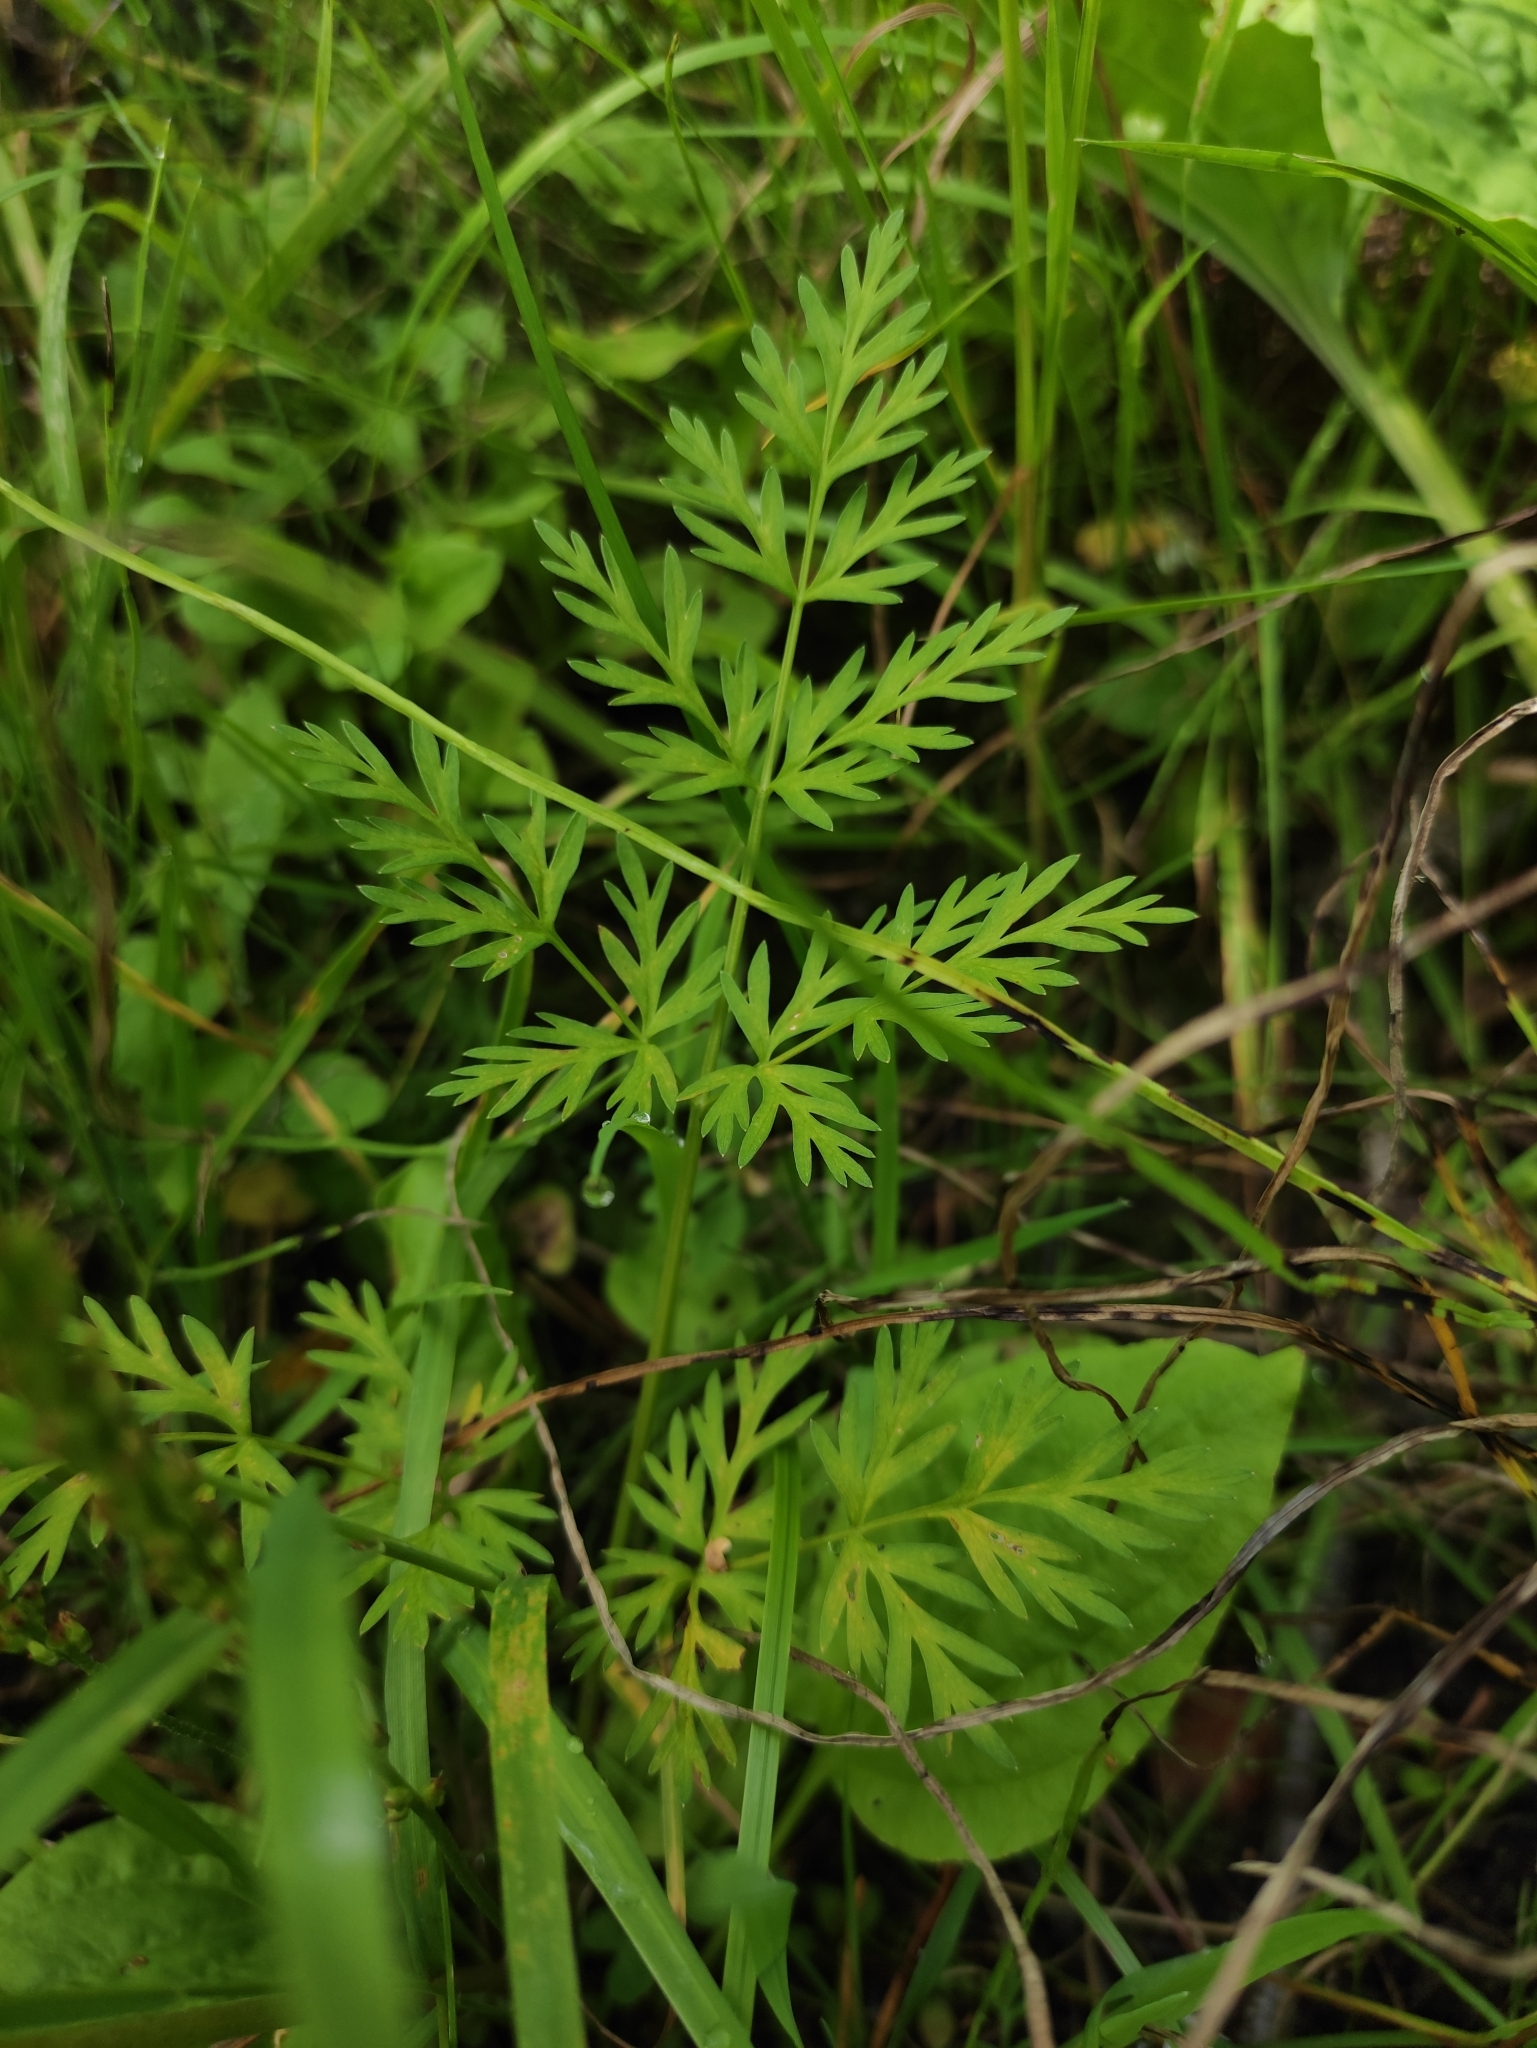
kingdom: Plantae
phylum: Tracheophyta
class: Magnoliopsida
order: Apiales
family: Apiaceae
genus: Aegopodium
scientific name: Aegopodium alpestre
